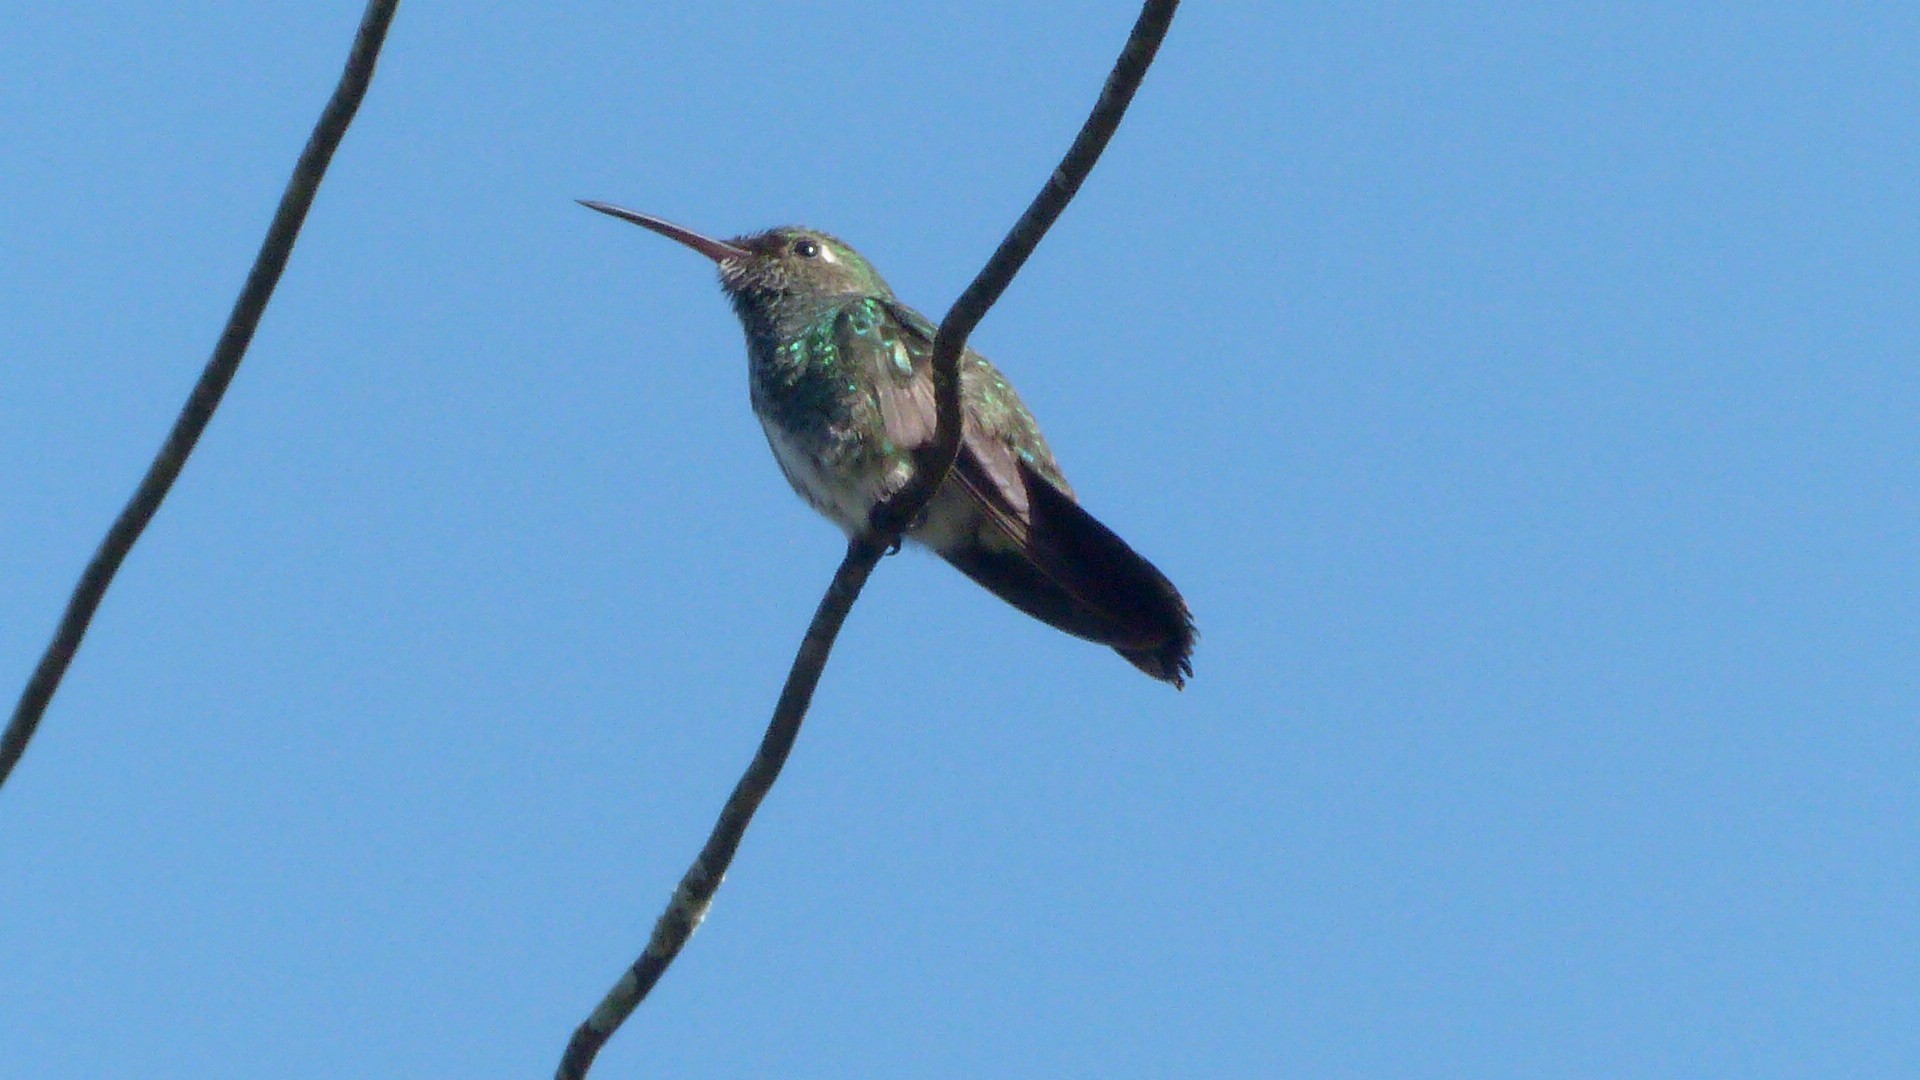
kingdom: Animalia
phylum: Chordata
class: Aves
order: Apodiformes
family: Trochilidae
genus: Chionomesa
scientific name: Chionomesa fimbriata
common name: Glittering-throated emerald
